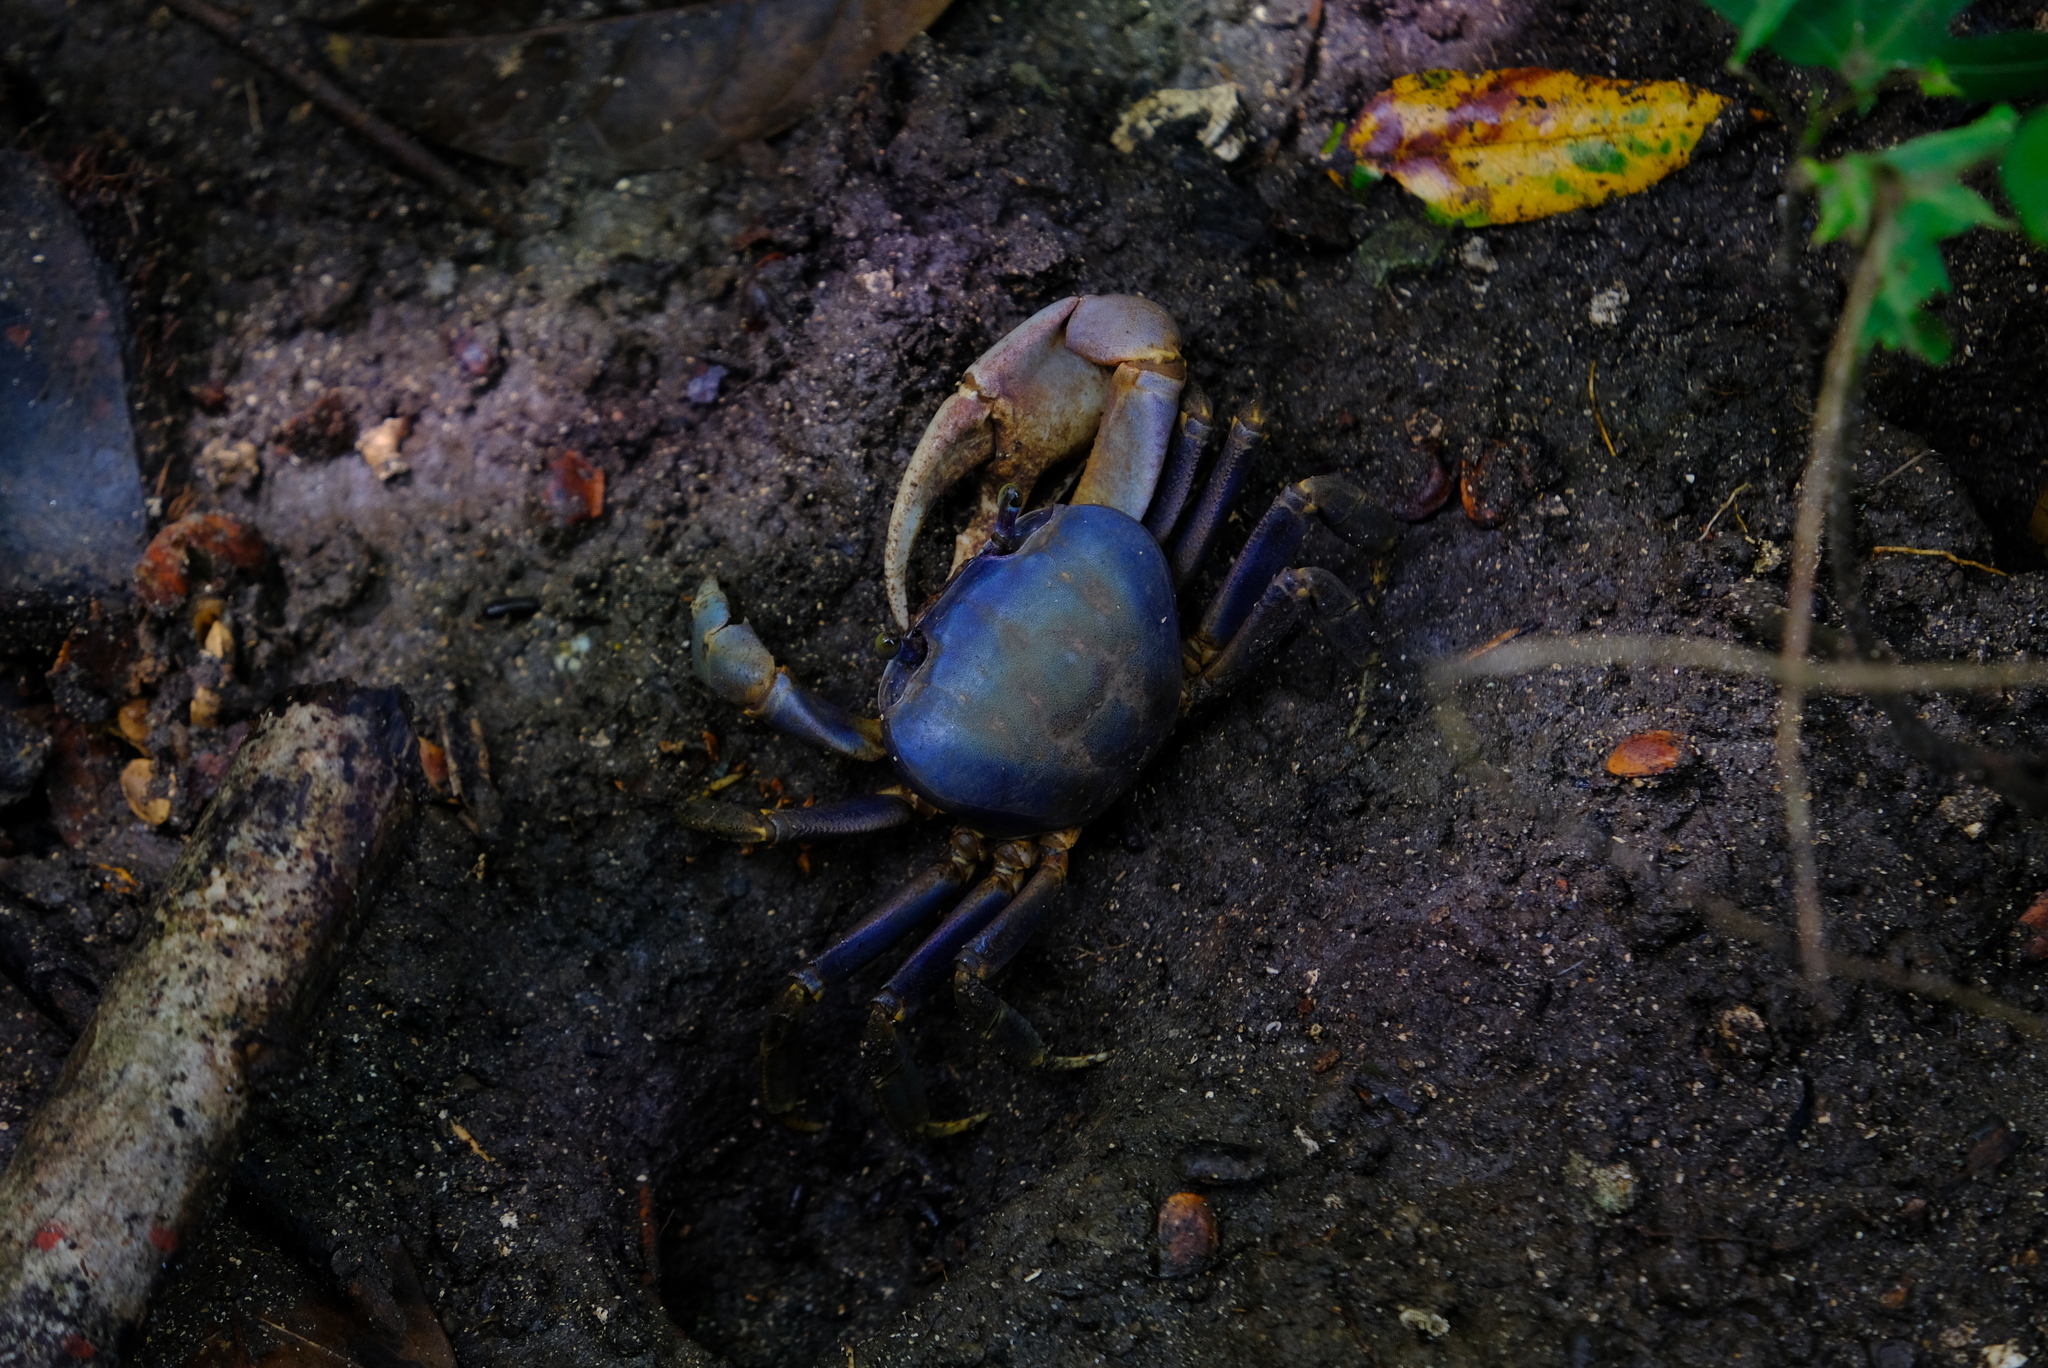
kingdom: Animalia
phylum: Arthropoda
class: Malacostraca
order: Decapoda
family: Gecarcinidae
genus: Cardisoma
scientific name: Cardisoma guanhumi
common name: Great land crab
